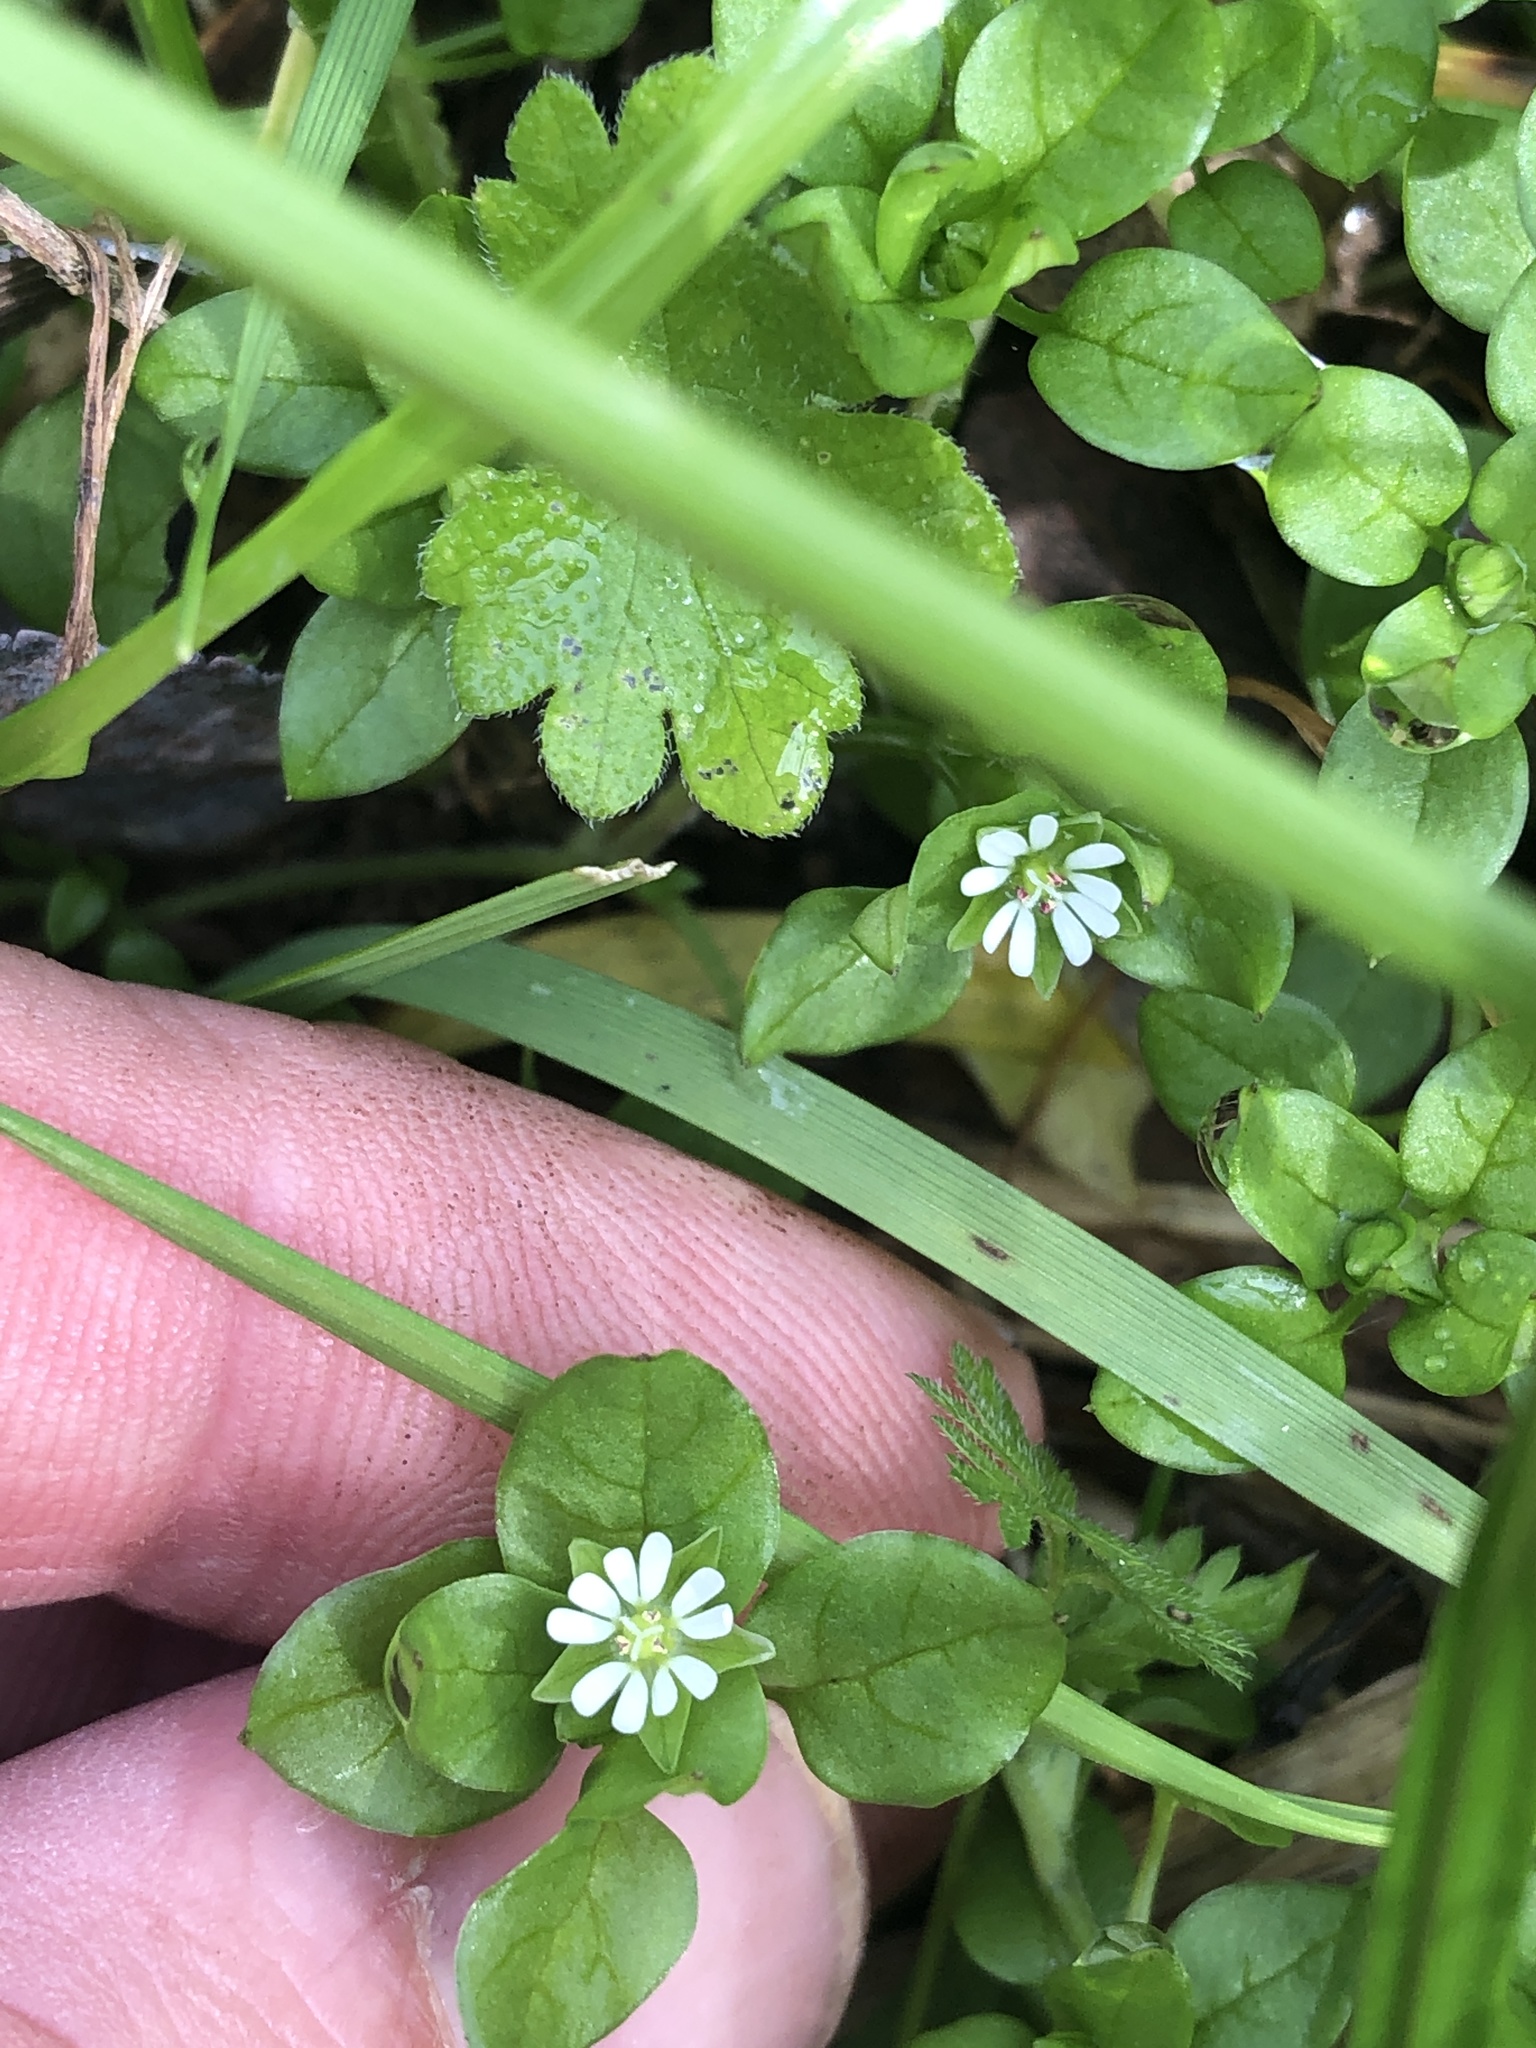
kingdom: Plantae
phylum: Tracheophyta
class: Magnoliopsida
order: Caryophyllales
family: Caryophyllaceae
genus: Stellaria
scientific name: Stellaria media
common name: Common chickweed
